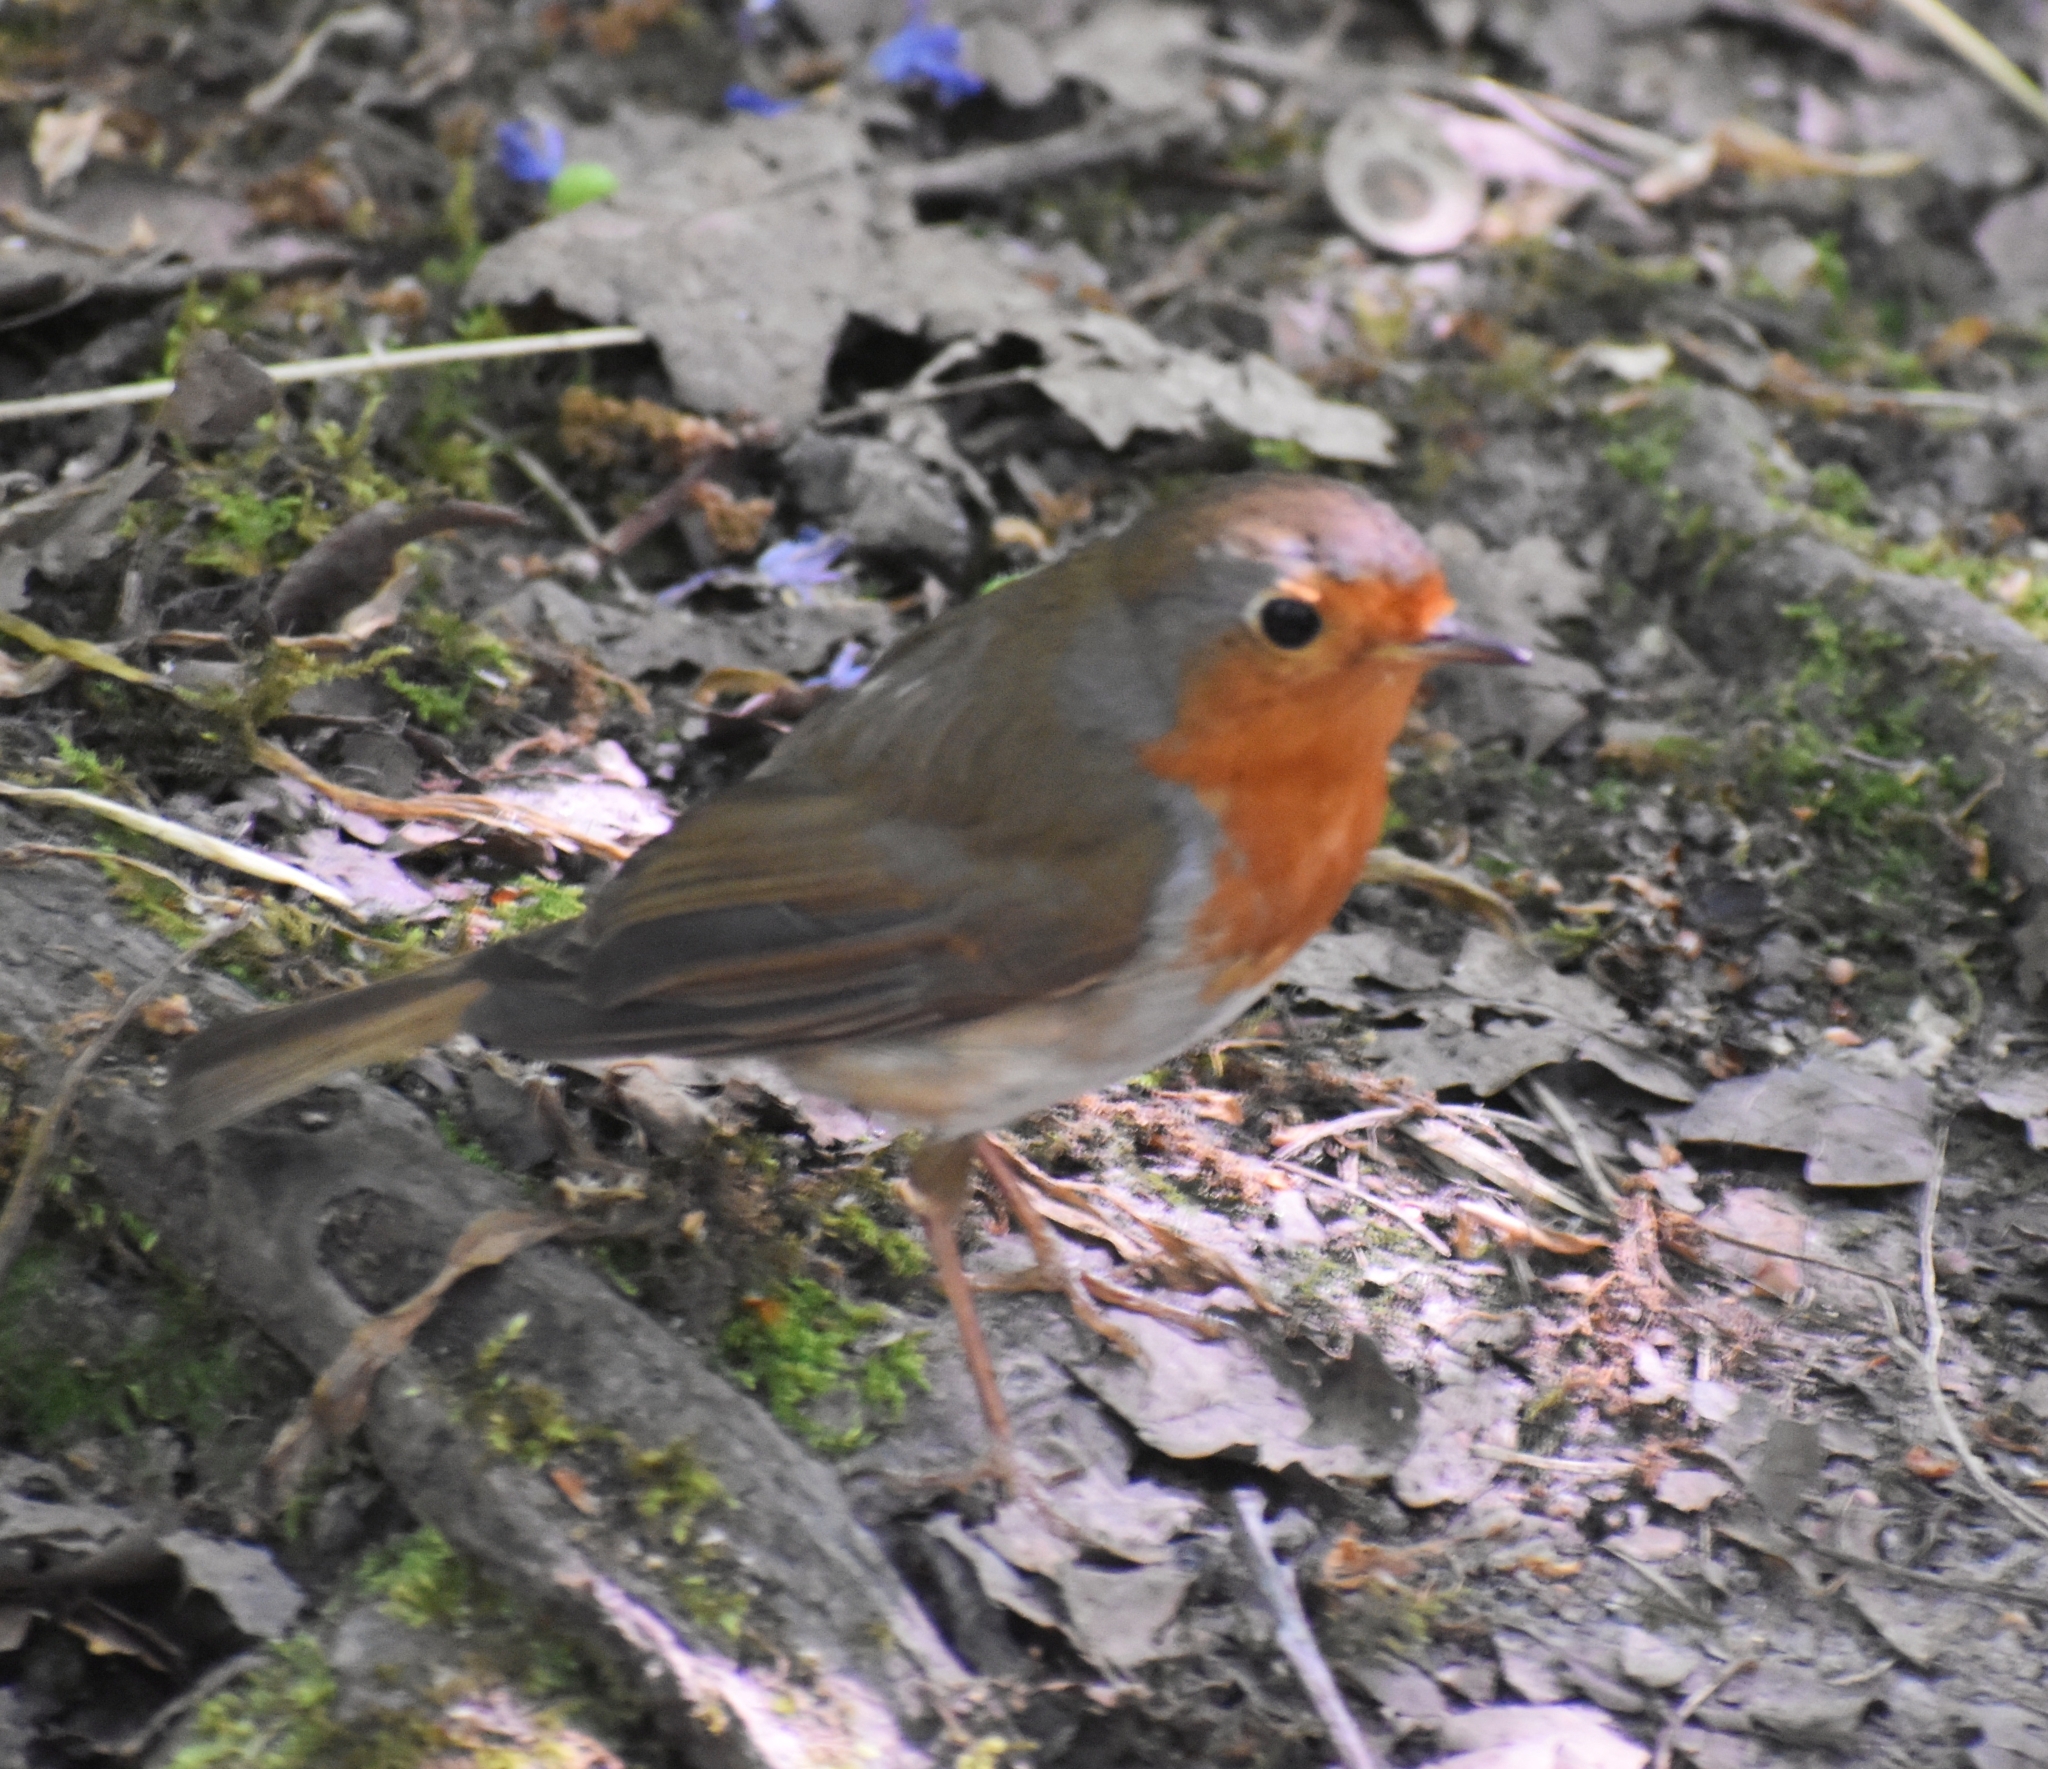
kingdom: Animalia
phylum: Chordata
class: Aves
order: Passeriformes
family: Muscicapidae
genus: Erithacus
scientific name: Erithacus rubecula
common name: European robin
